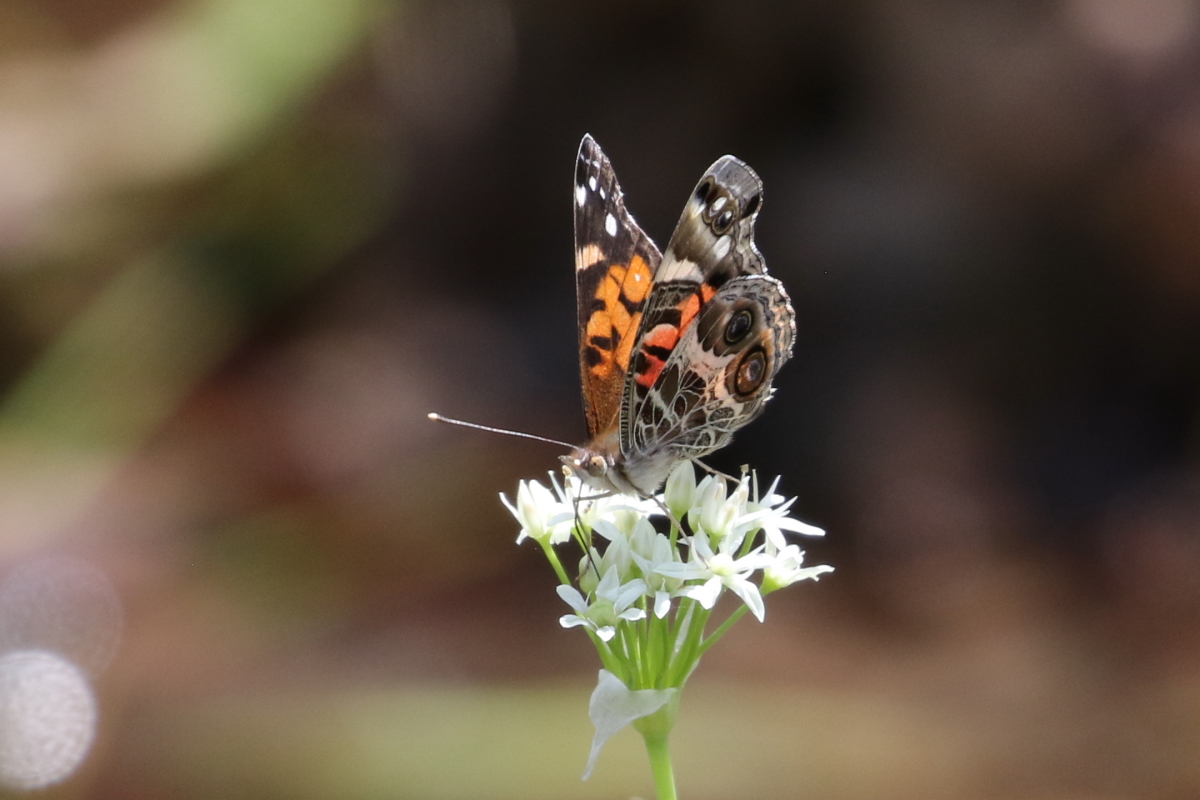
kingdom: Animalia
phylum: Arthropoda
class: Insecta
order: Lepidoptera
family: Nymphalidae
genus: Vanessa
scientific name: Vanessa virginiensis
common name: American lady
